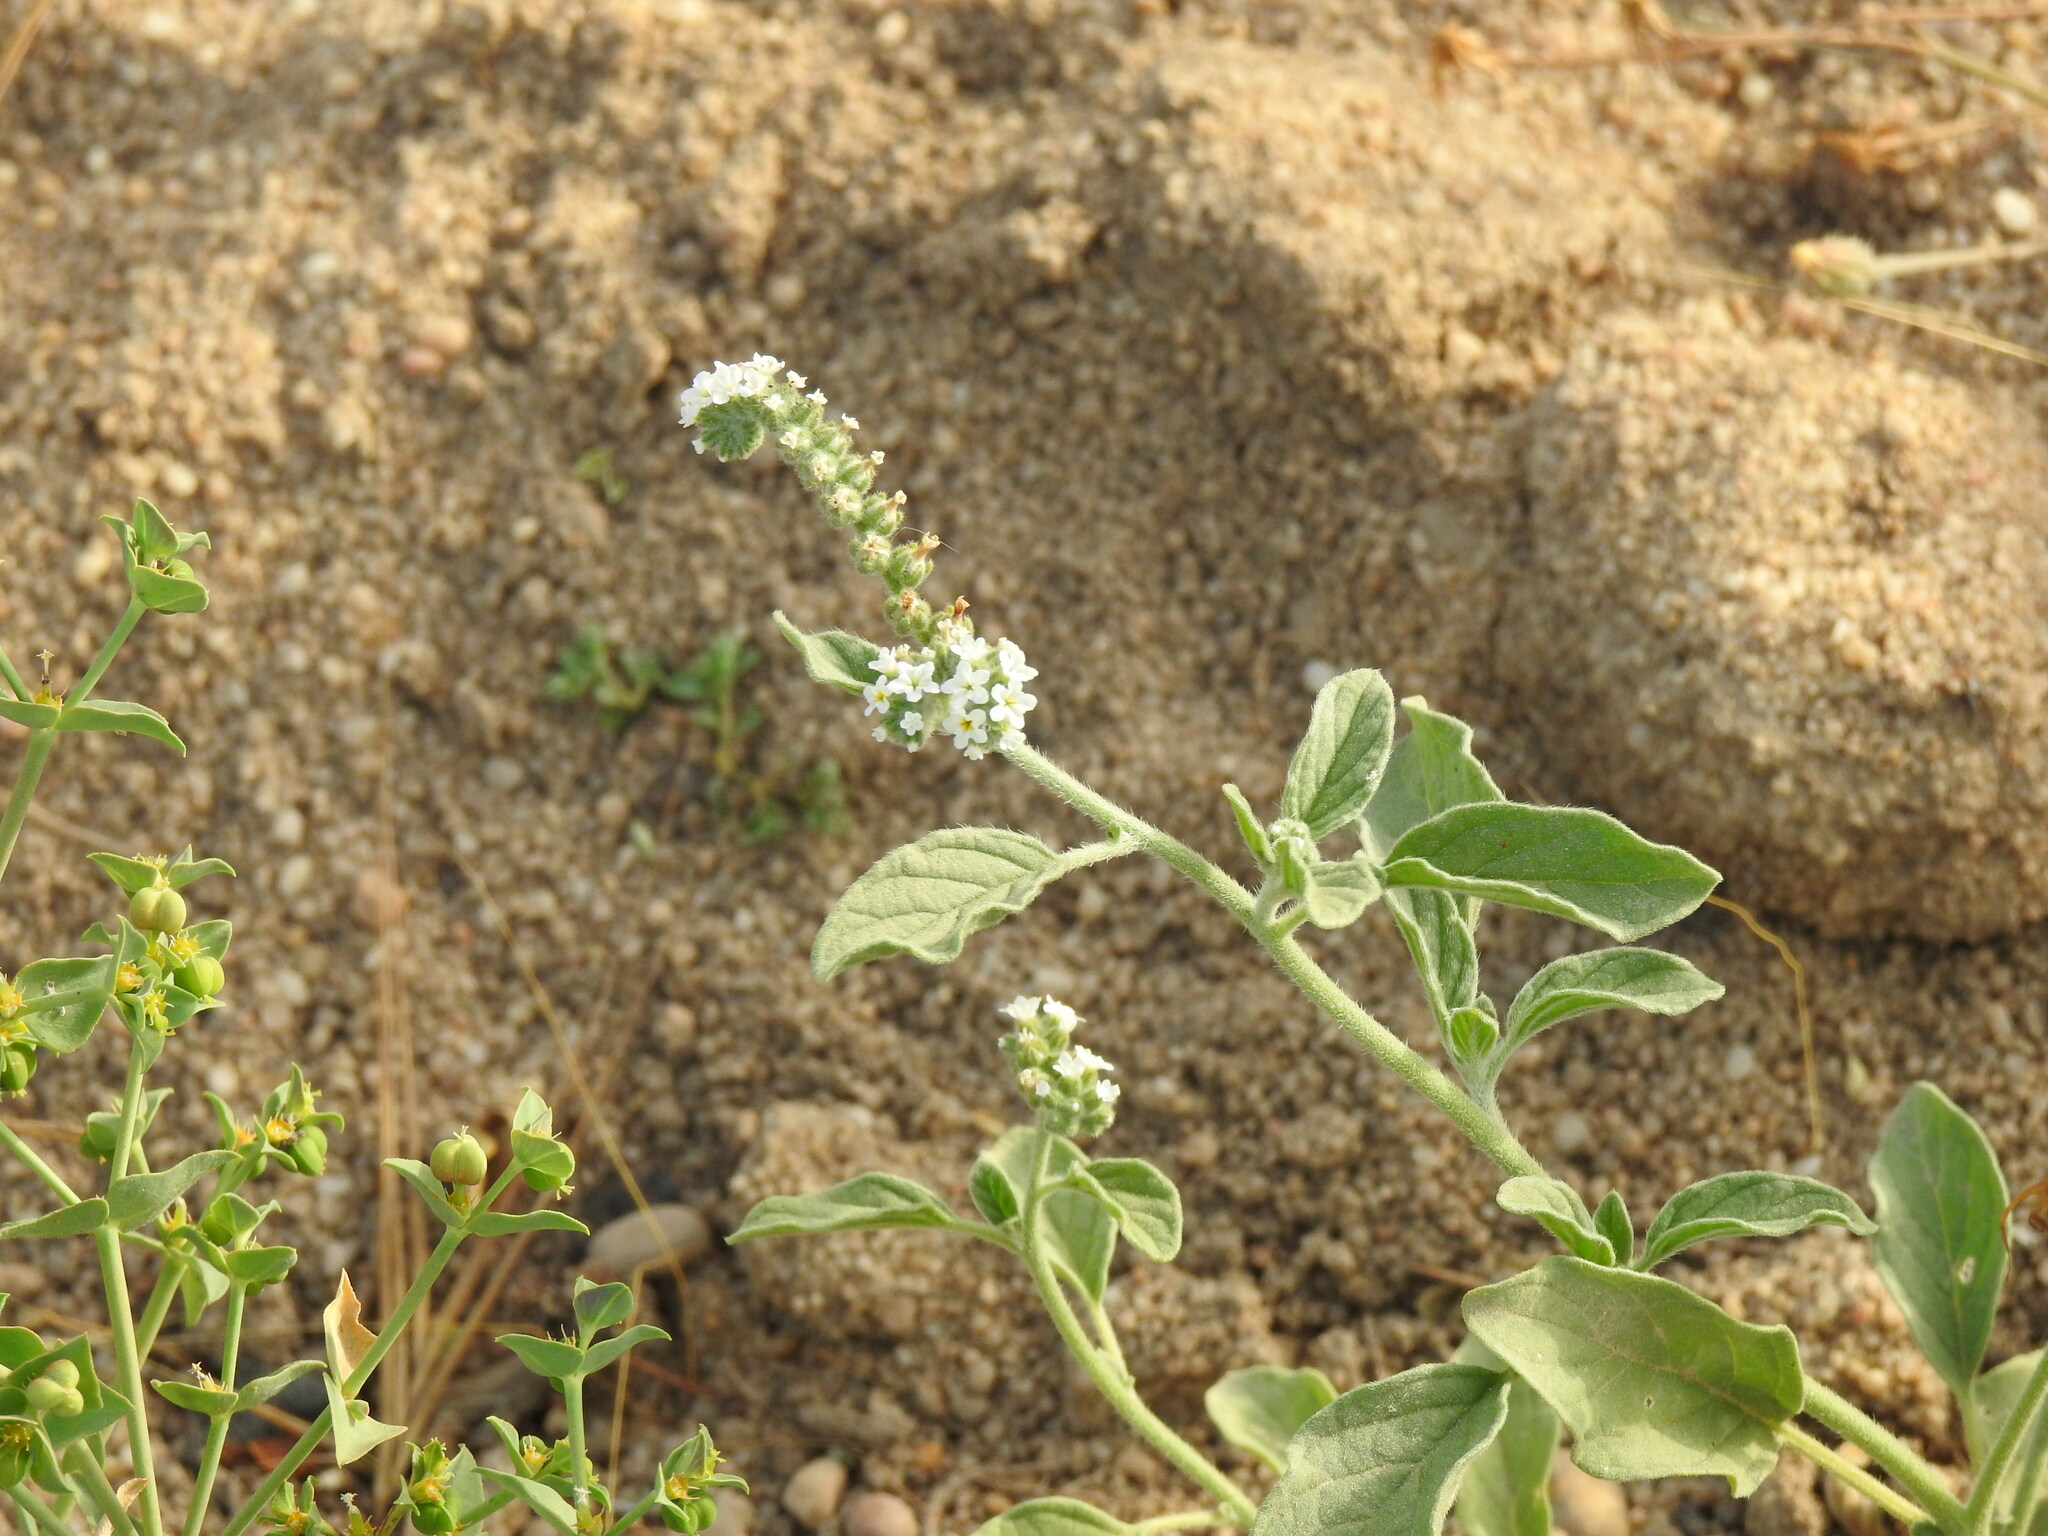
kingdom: Plantae
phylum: Tracheophyta
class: Magnoliopsida
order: Boraginales
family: Heliotropiaceae
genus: Heliotropium
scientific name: Heliotropium europaeum
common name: European heliotrope
